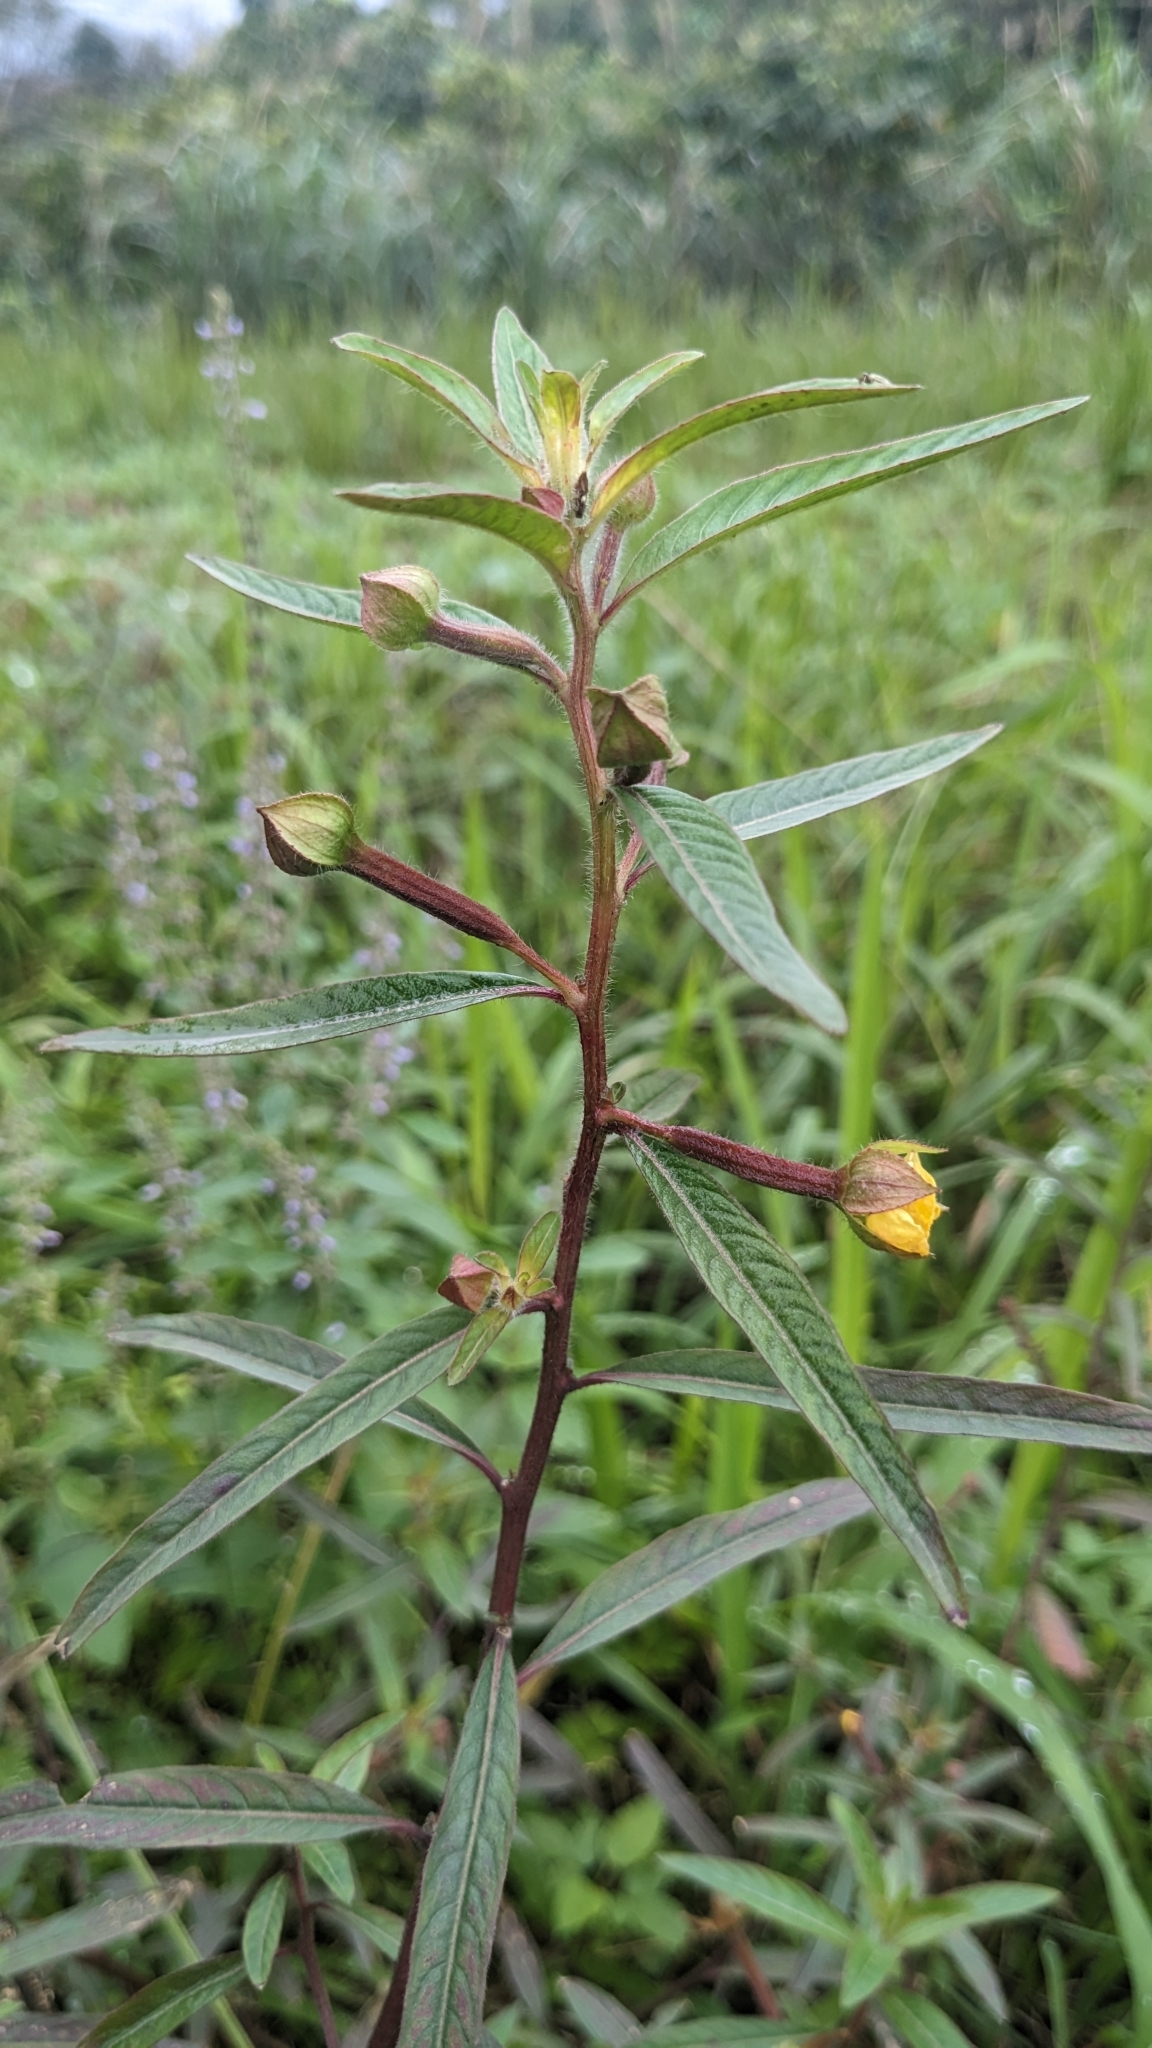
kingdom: Plantae
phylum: Tracheophyta
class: Magnoliopsida
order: Myrtales
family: Onagraceae
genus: Ludwigia
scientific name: Ludwigia octovalvis
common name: Water-primrose
